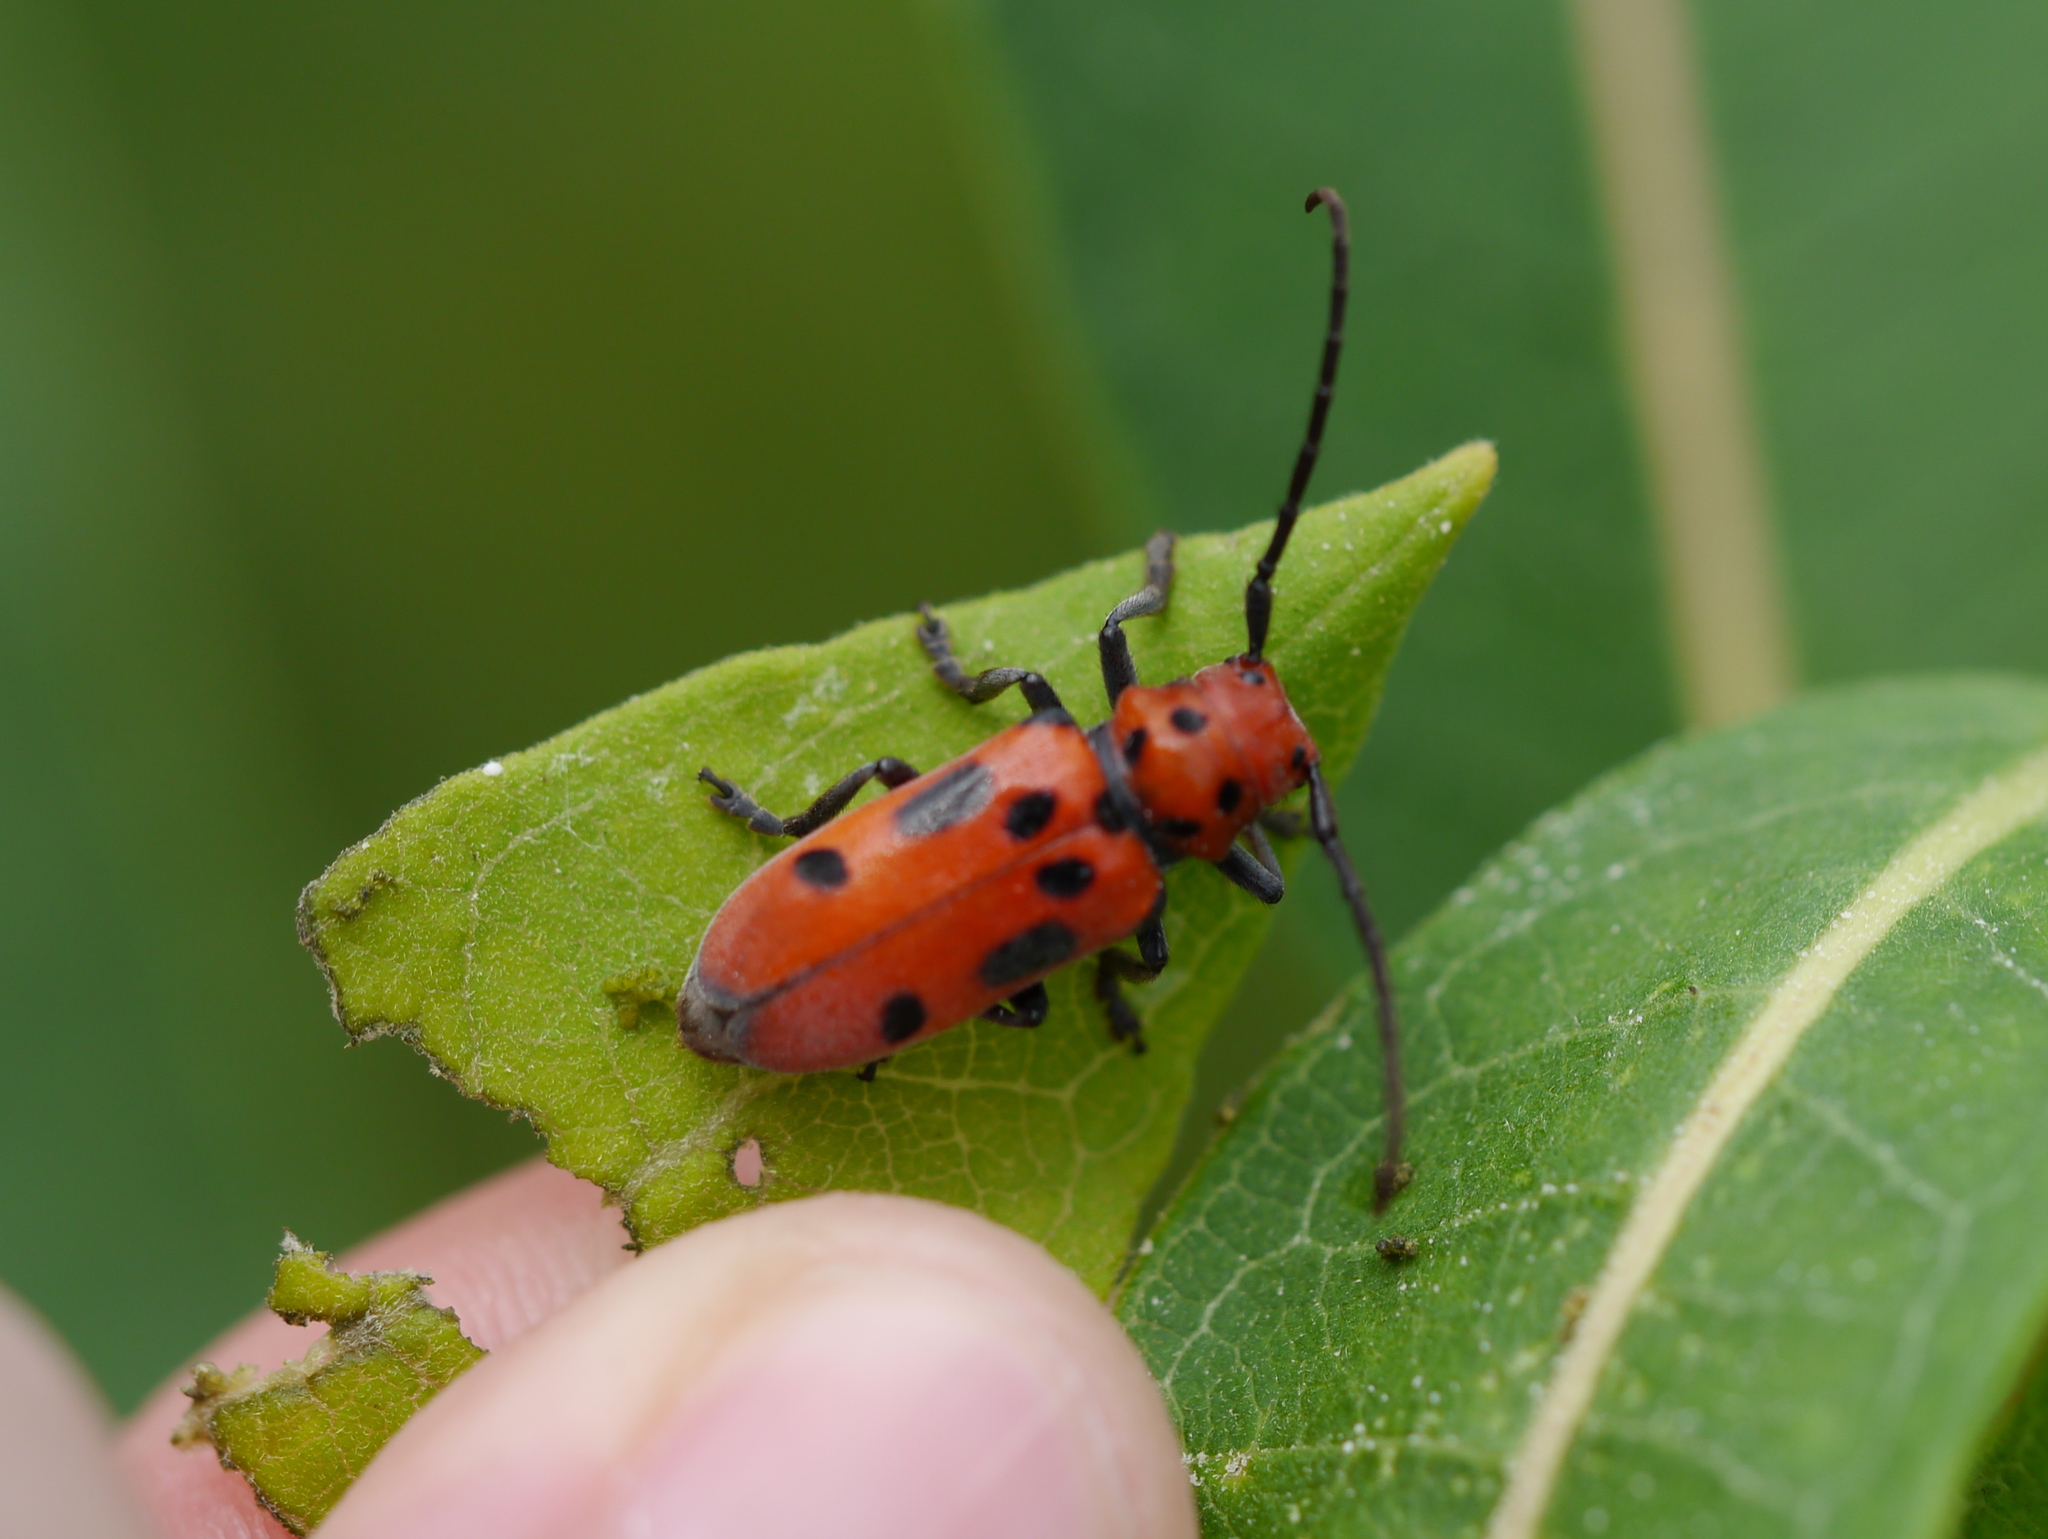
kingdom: Animalia
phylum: Arthropoda
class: Insecta
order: Coleoptera
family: Cerambycidae
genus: Tetraopes
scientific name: Tetraopes tetrophthalmus
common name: Red milkweed beetle
